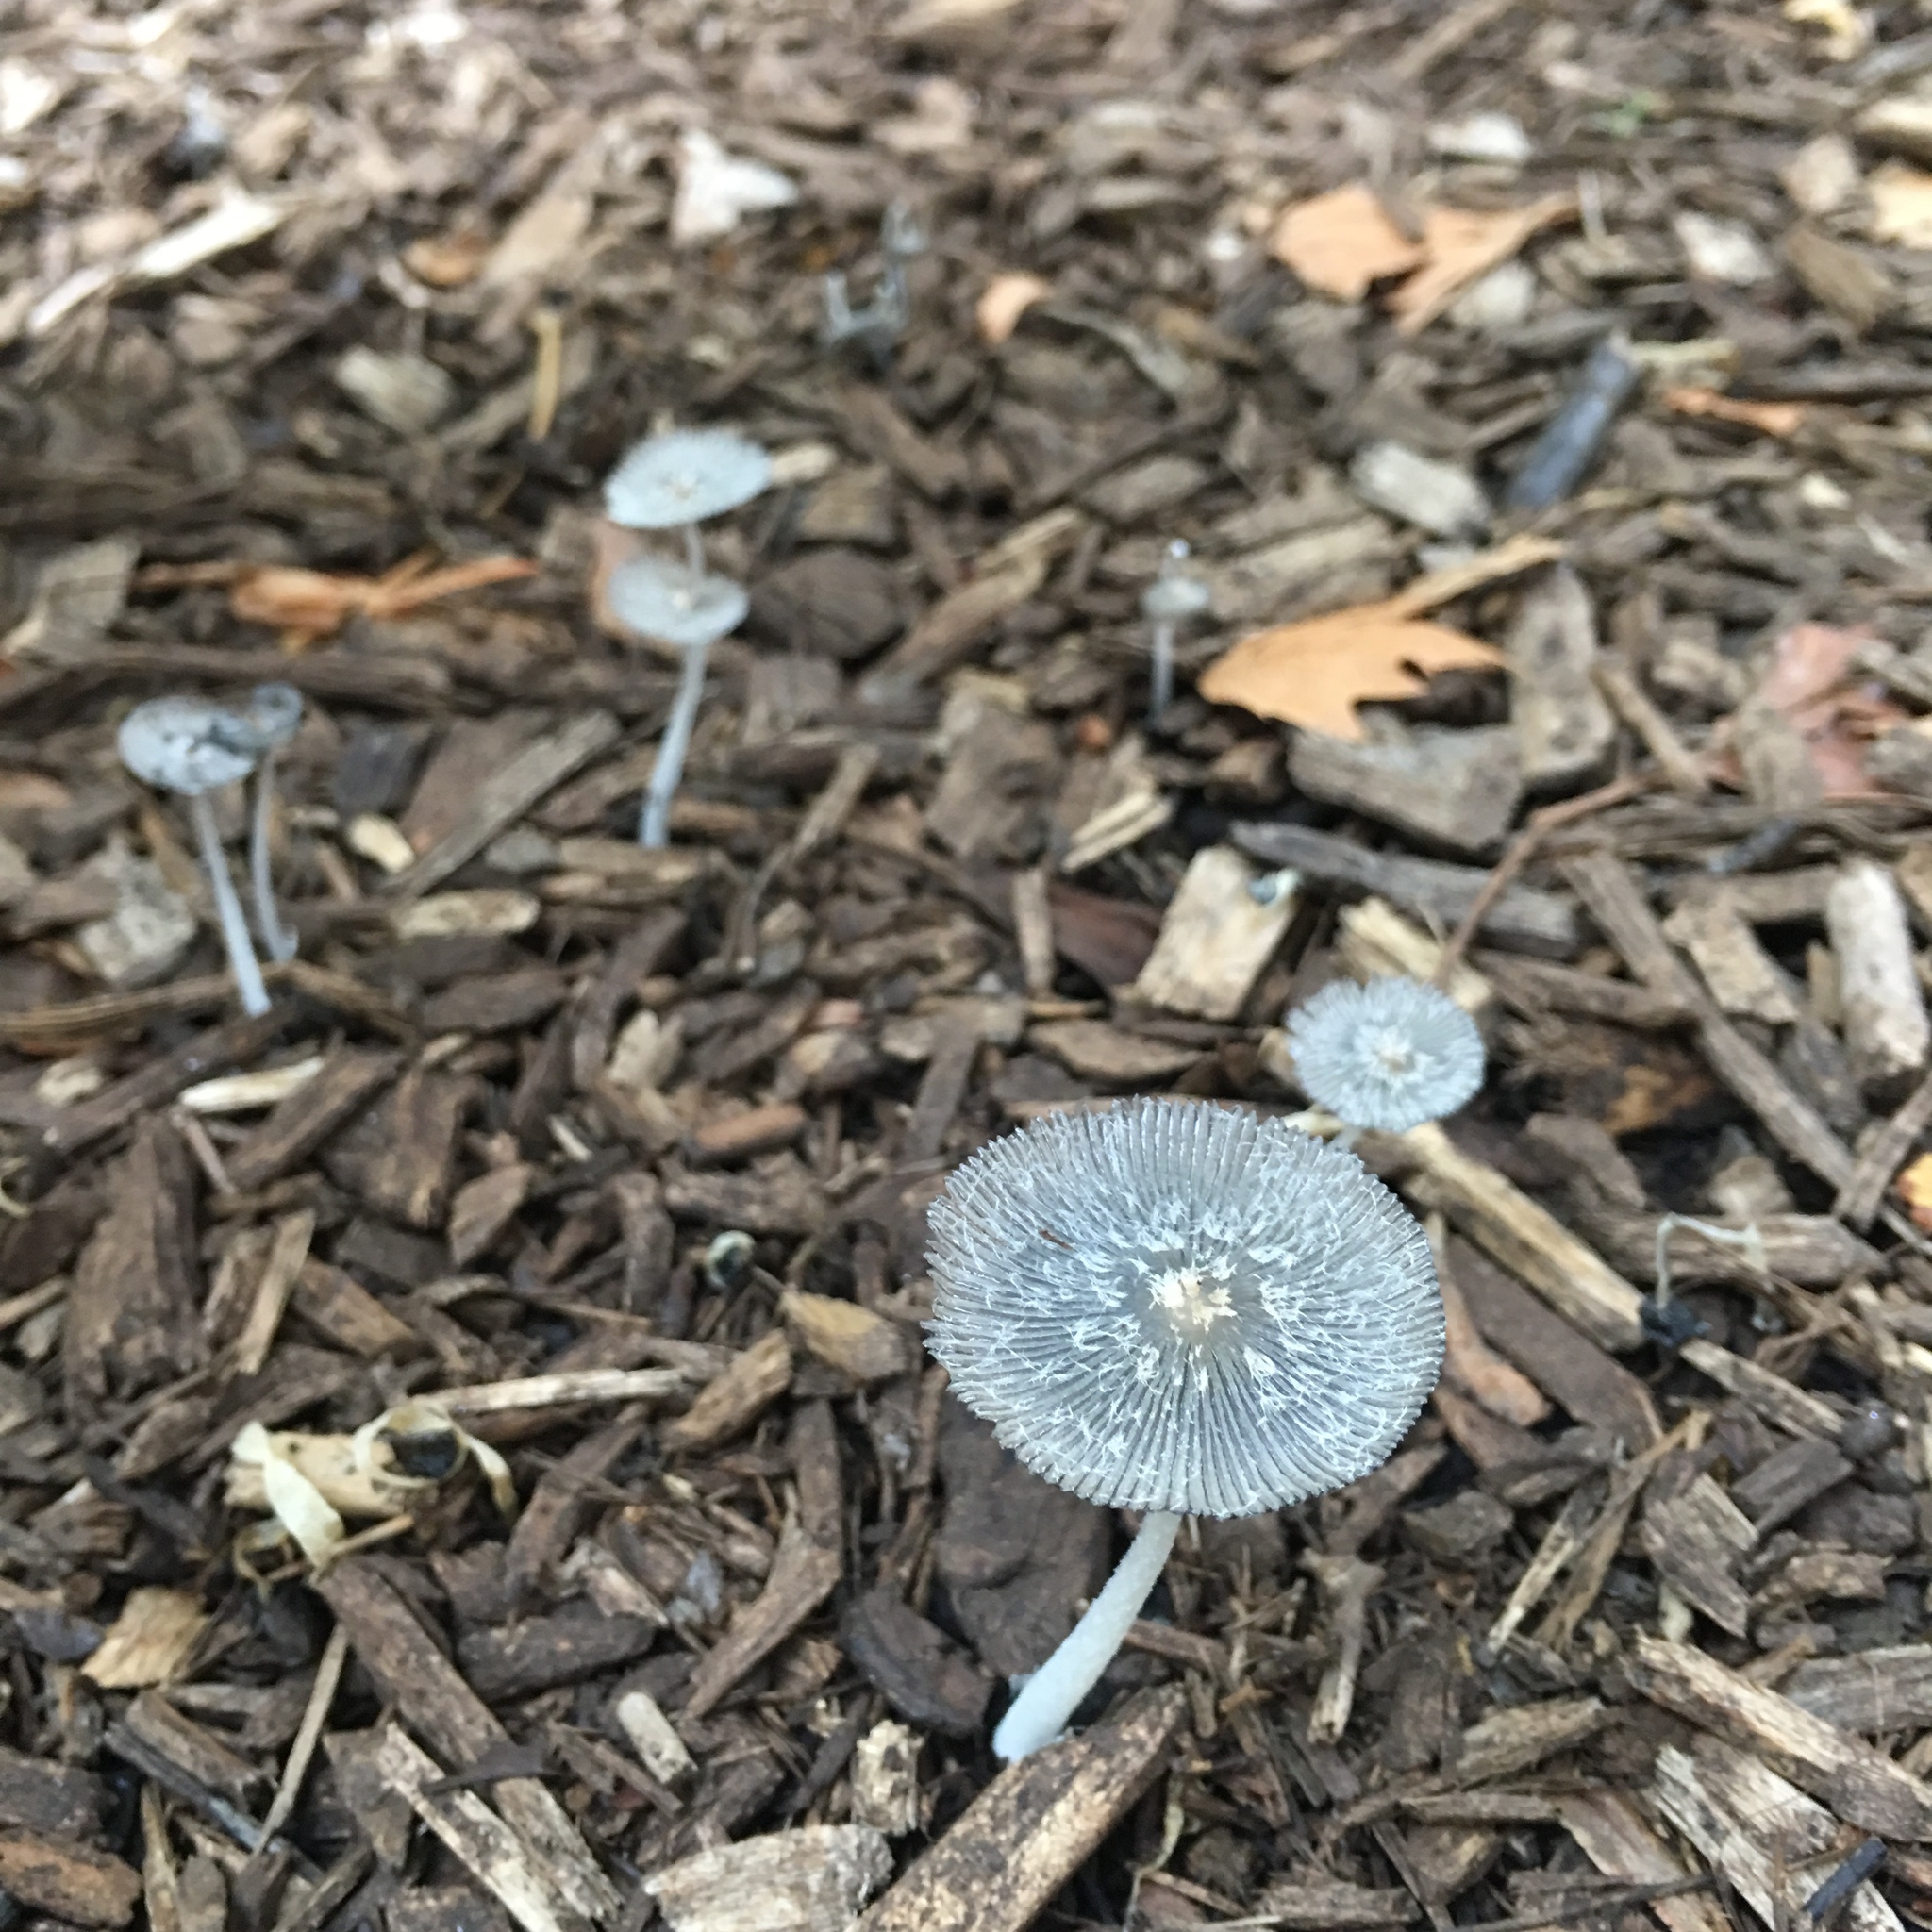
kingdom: Fungi
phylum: Basidiomycota
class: Agaricomycetes
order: Agaricales
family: Psathyrellaceae
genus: Coprinopsis
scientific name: Coprinopsis lagopus
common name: Hare'sfoot inkcap
